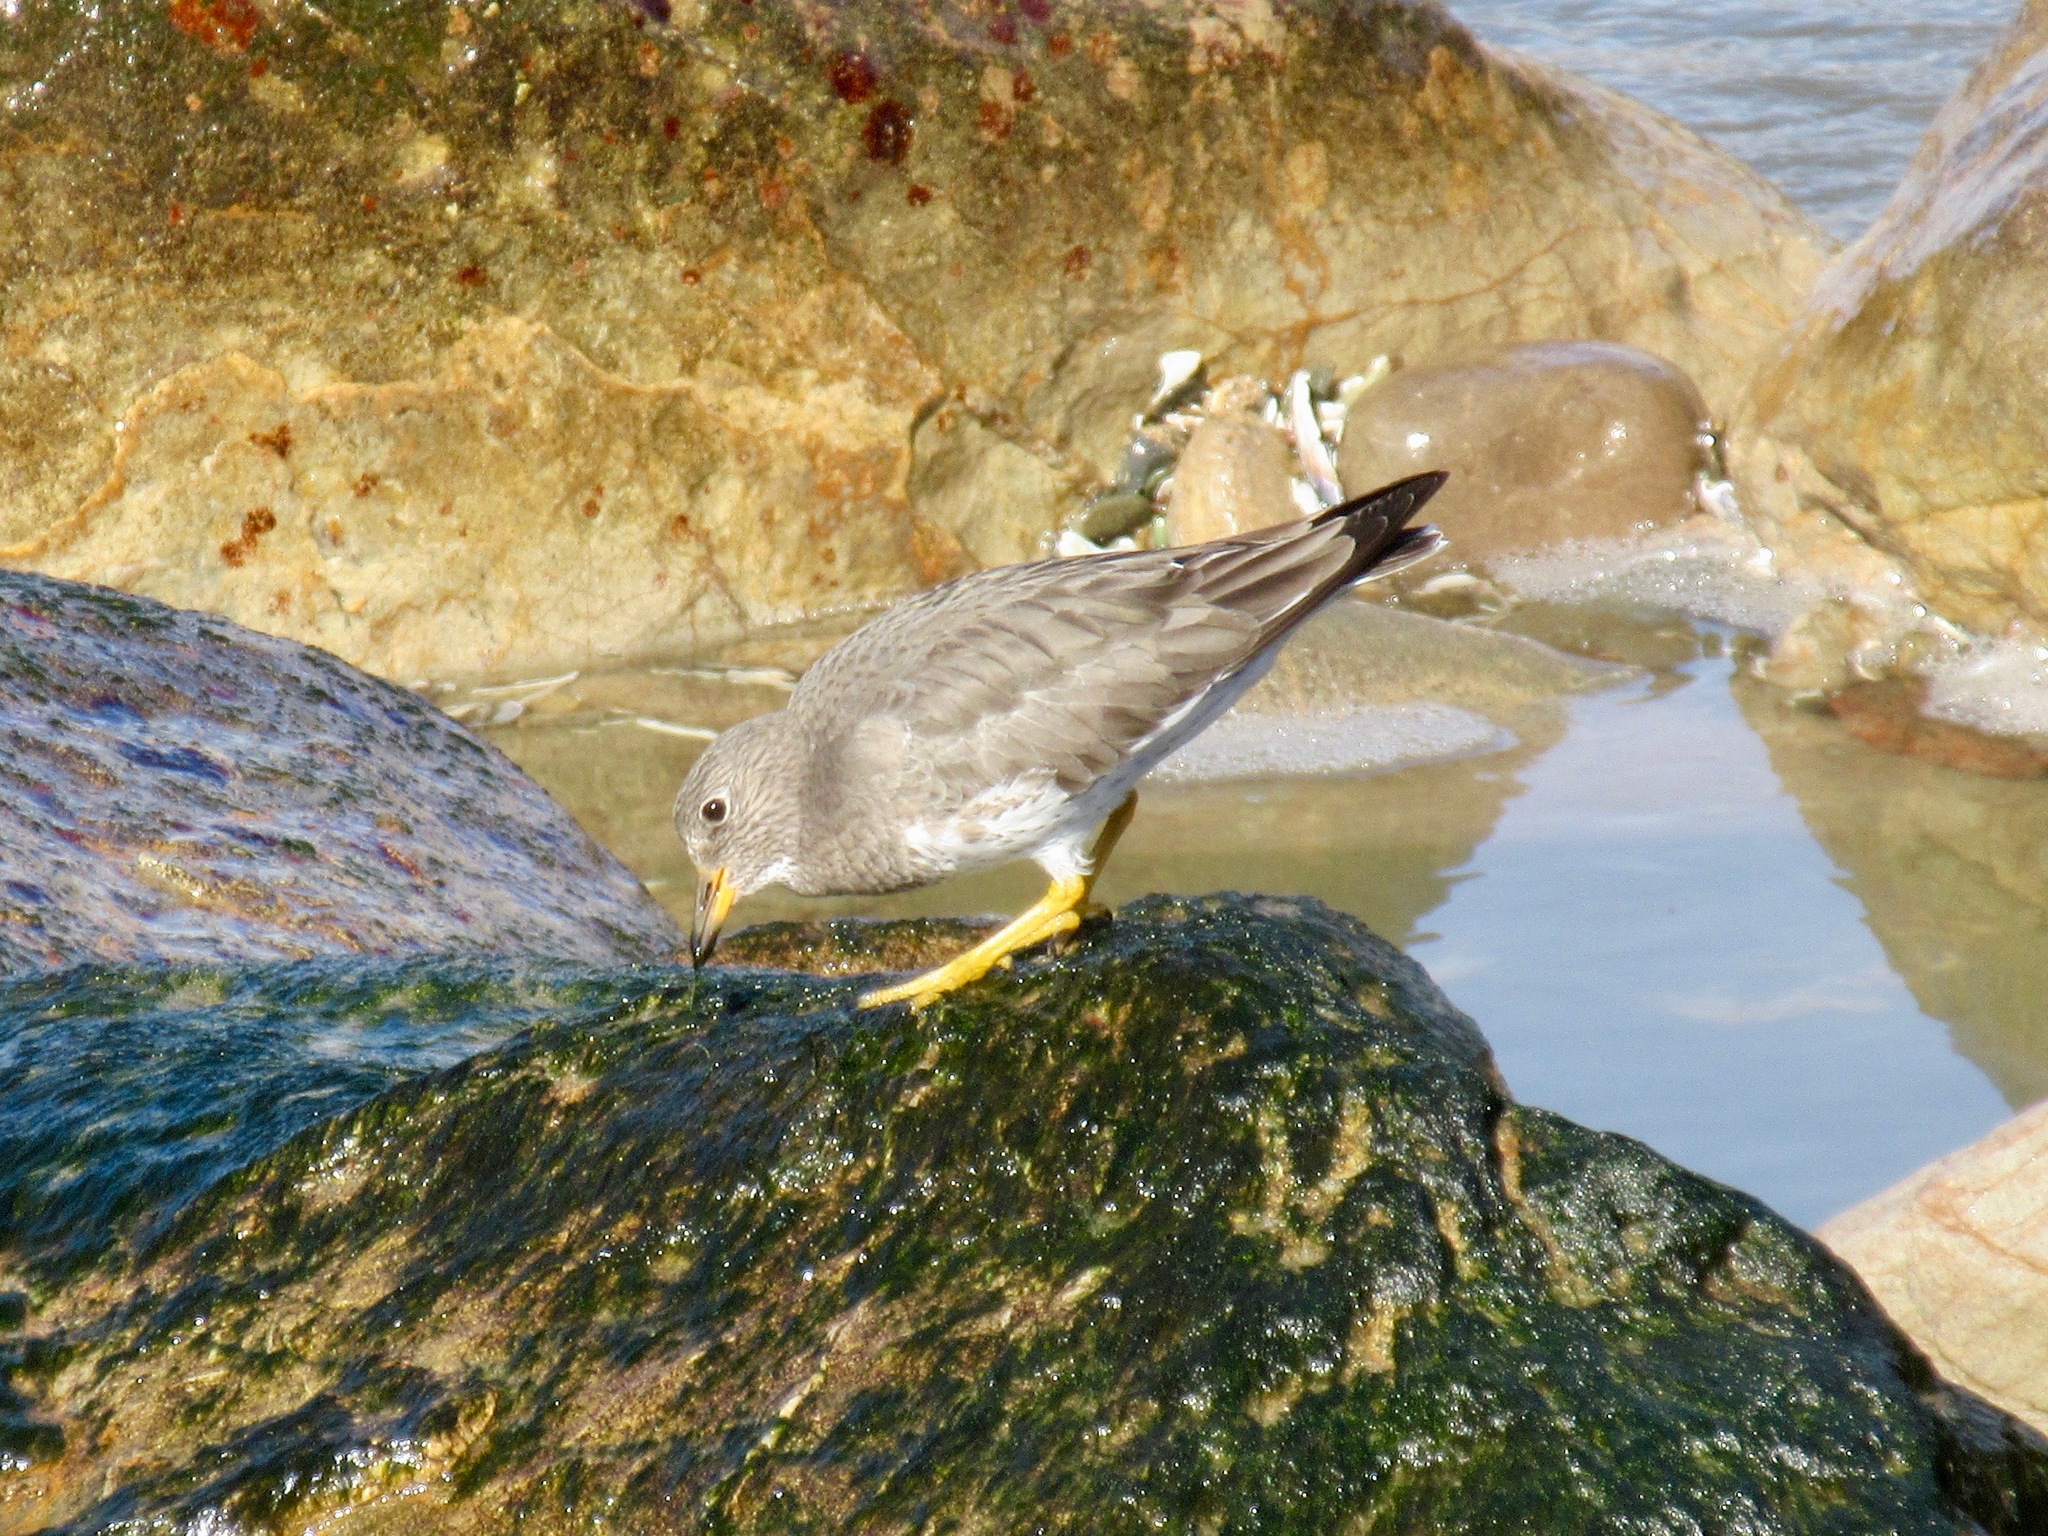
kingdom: Animalia
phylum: Chordata
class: Aves
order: Charadriiformes
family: Scolopacidae
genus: Calidris
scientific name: Calidris virgata
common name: Surfbird
